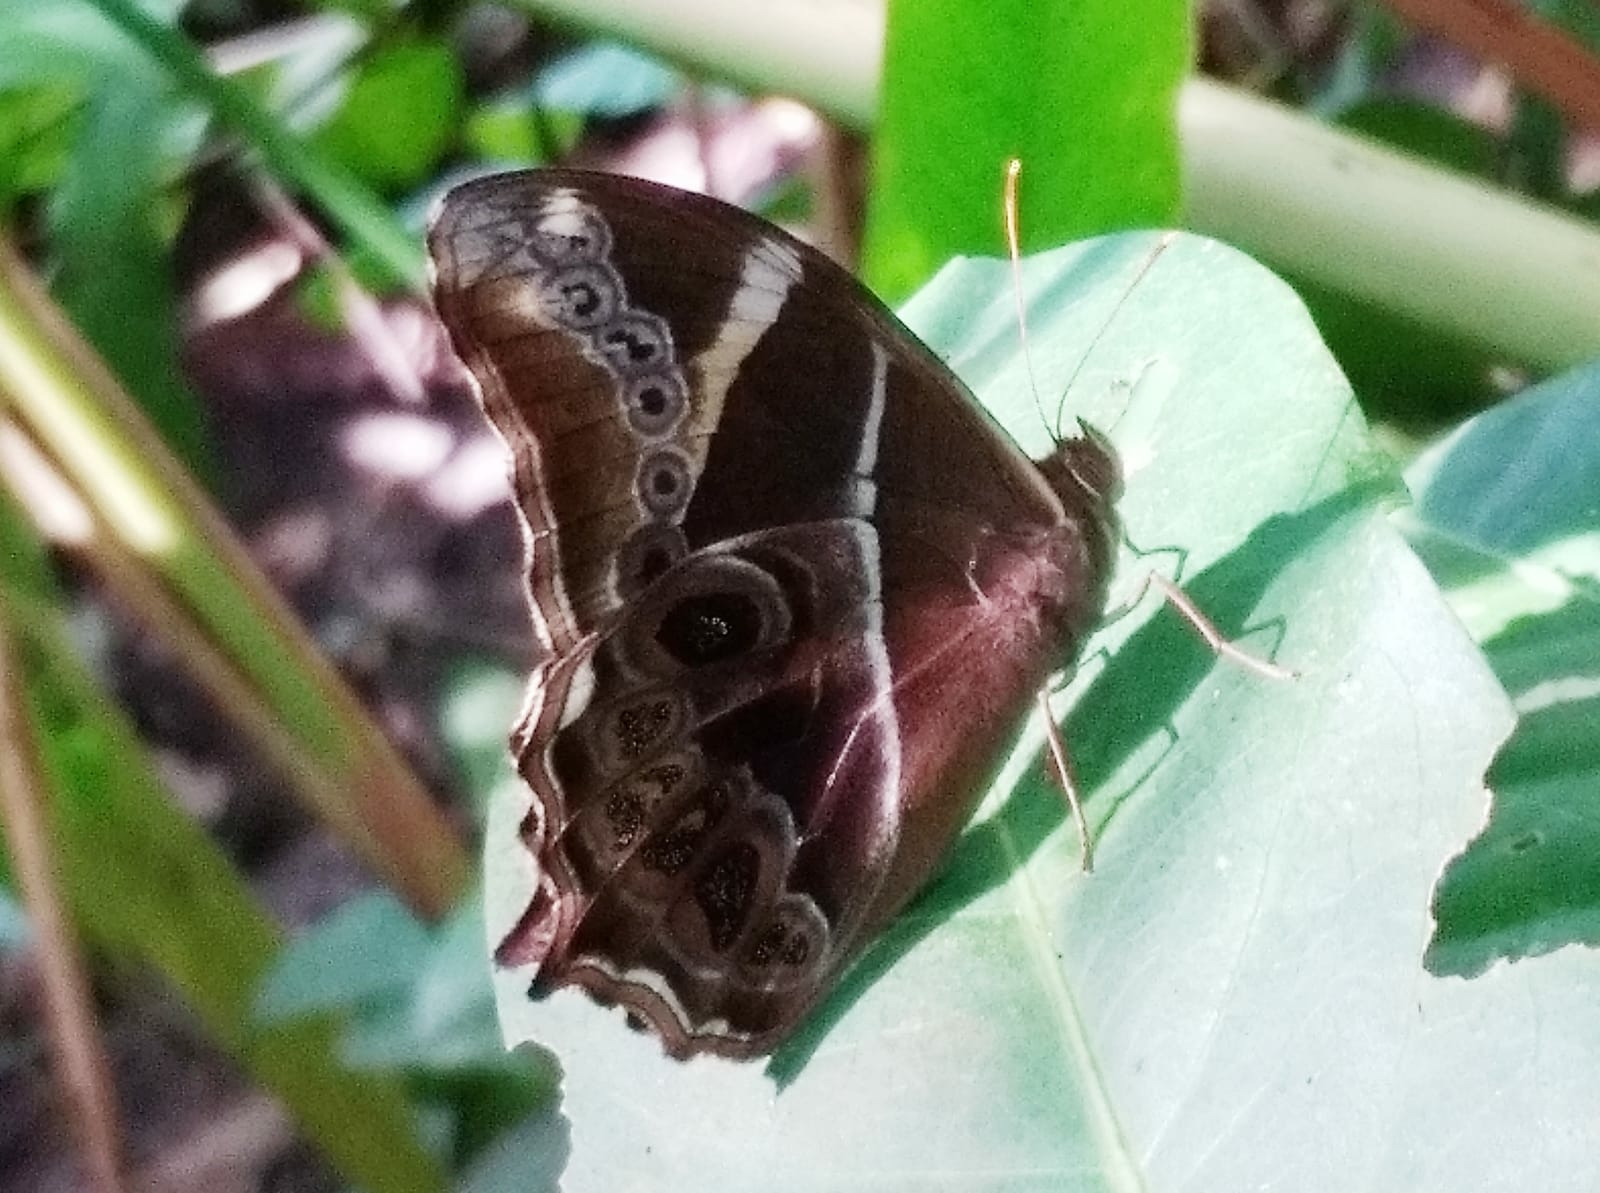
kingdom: Animalia
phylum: Arthropoda
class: Insecta
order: Lepidoptera
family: Nymphalidae
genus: Lethe
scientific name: Lethe europa
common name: Bamboo treebrown
